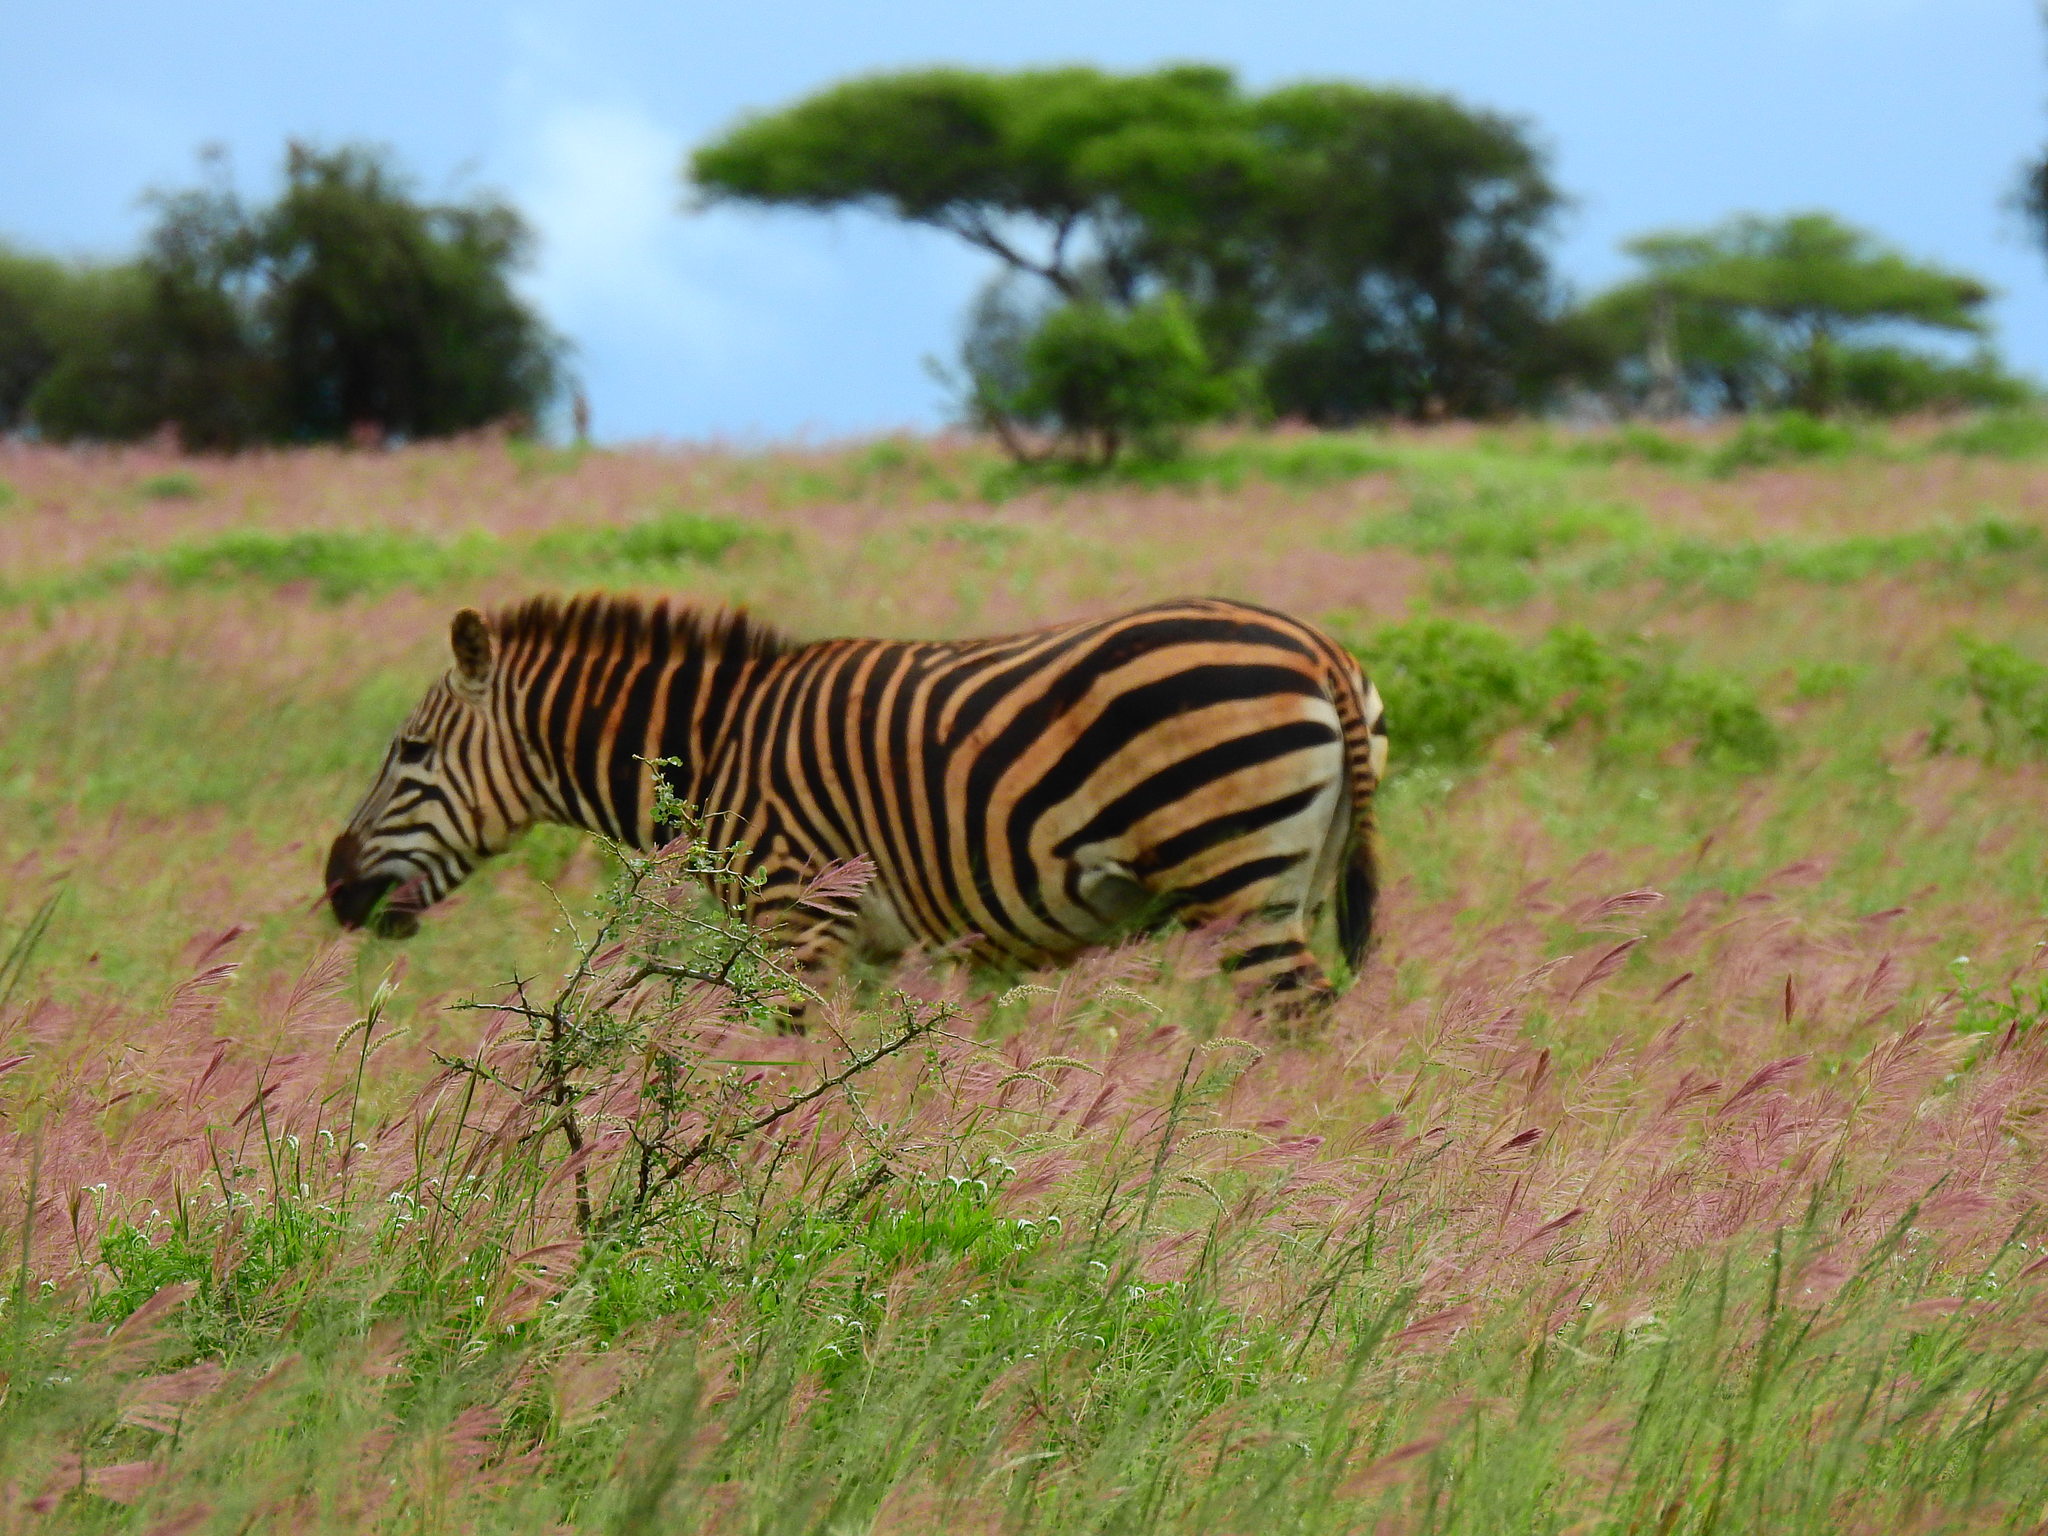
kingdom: Animalia
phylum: Chordata
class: Mammalia
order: Perissodactyla
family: Equidae
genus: Equus
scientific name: Equus quagga
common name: Plains zebra
